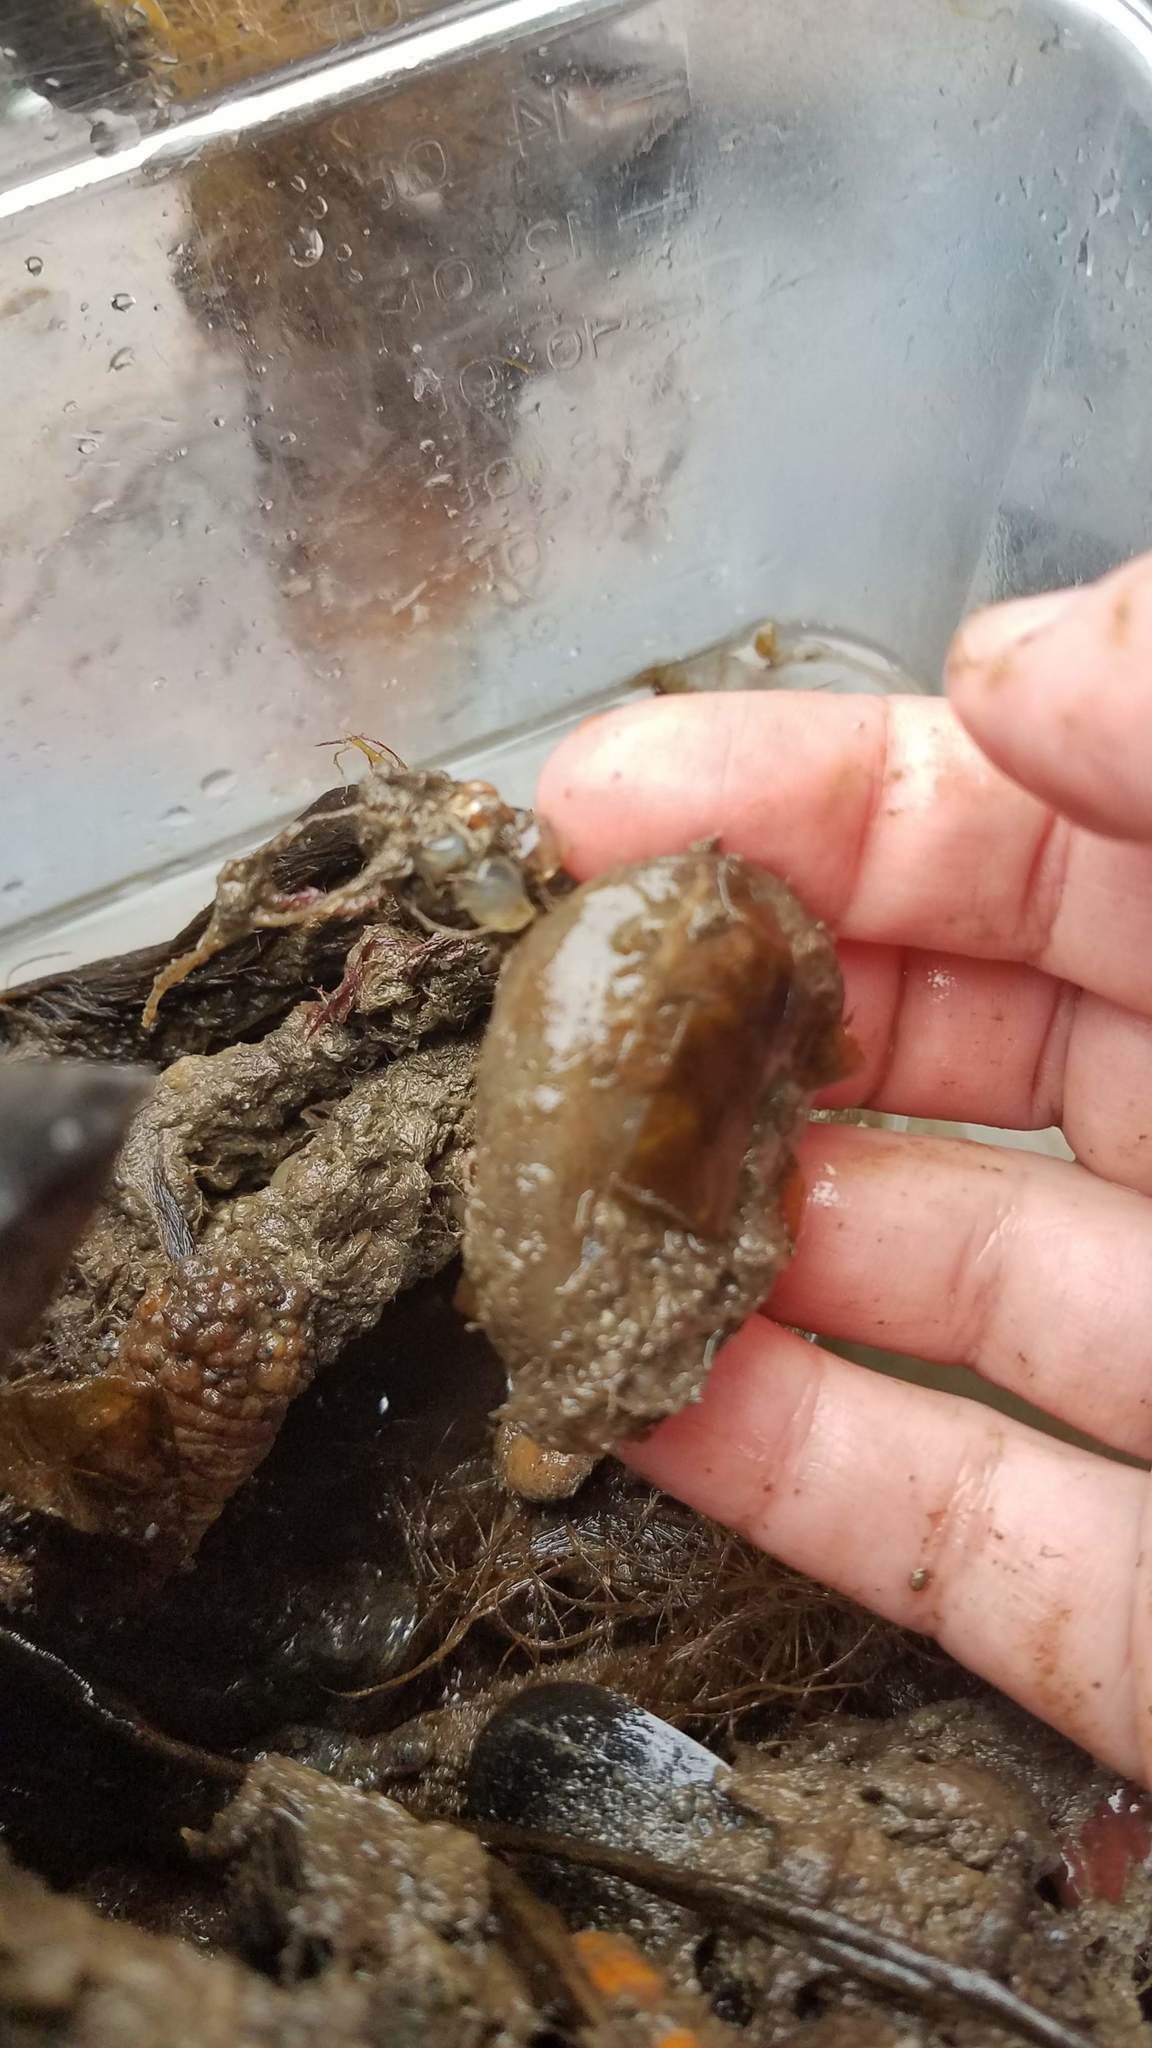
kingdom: Animalia
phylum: Chordata
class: Ascidiacea
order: Phlebobranchia
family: Cionidae
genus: Ciona
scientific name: Ciona intestinalis
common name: Vase tunicate
